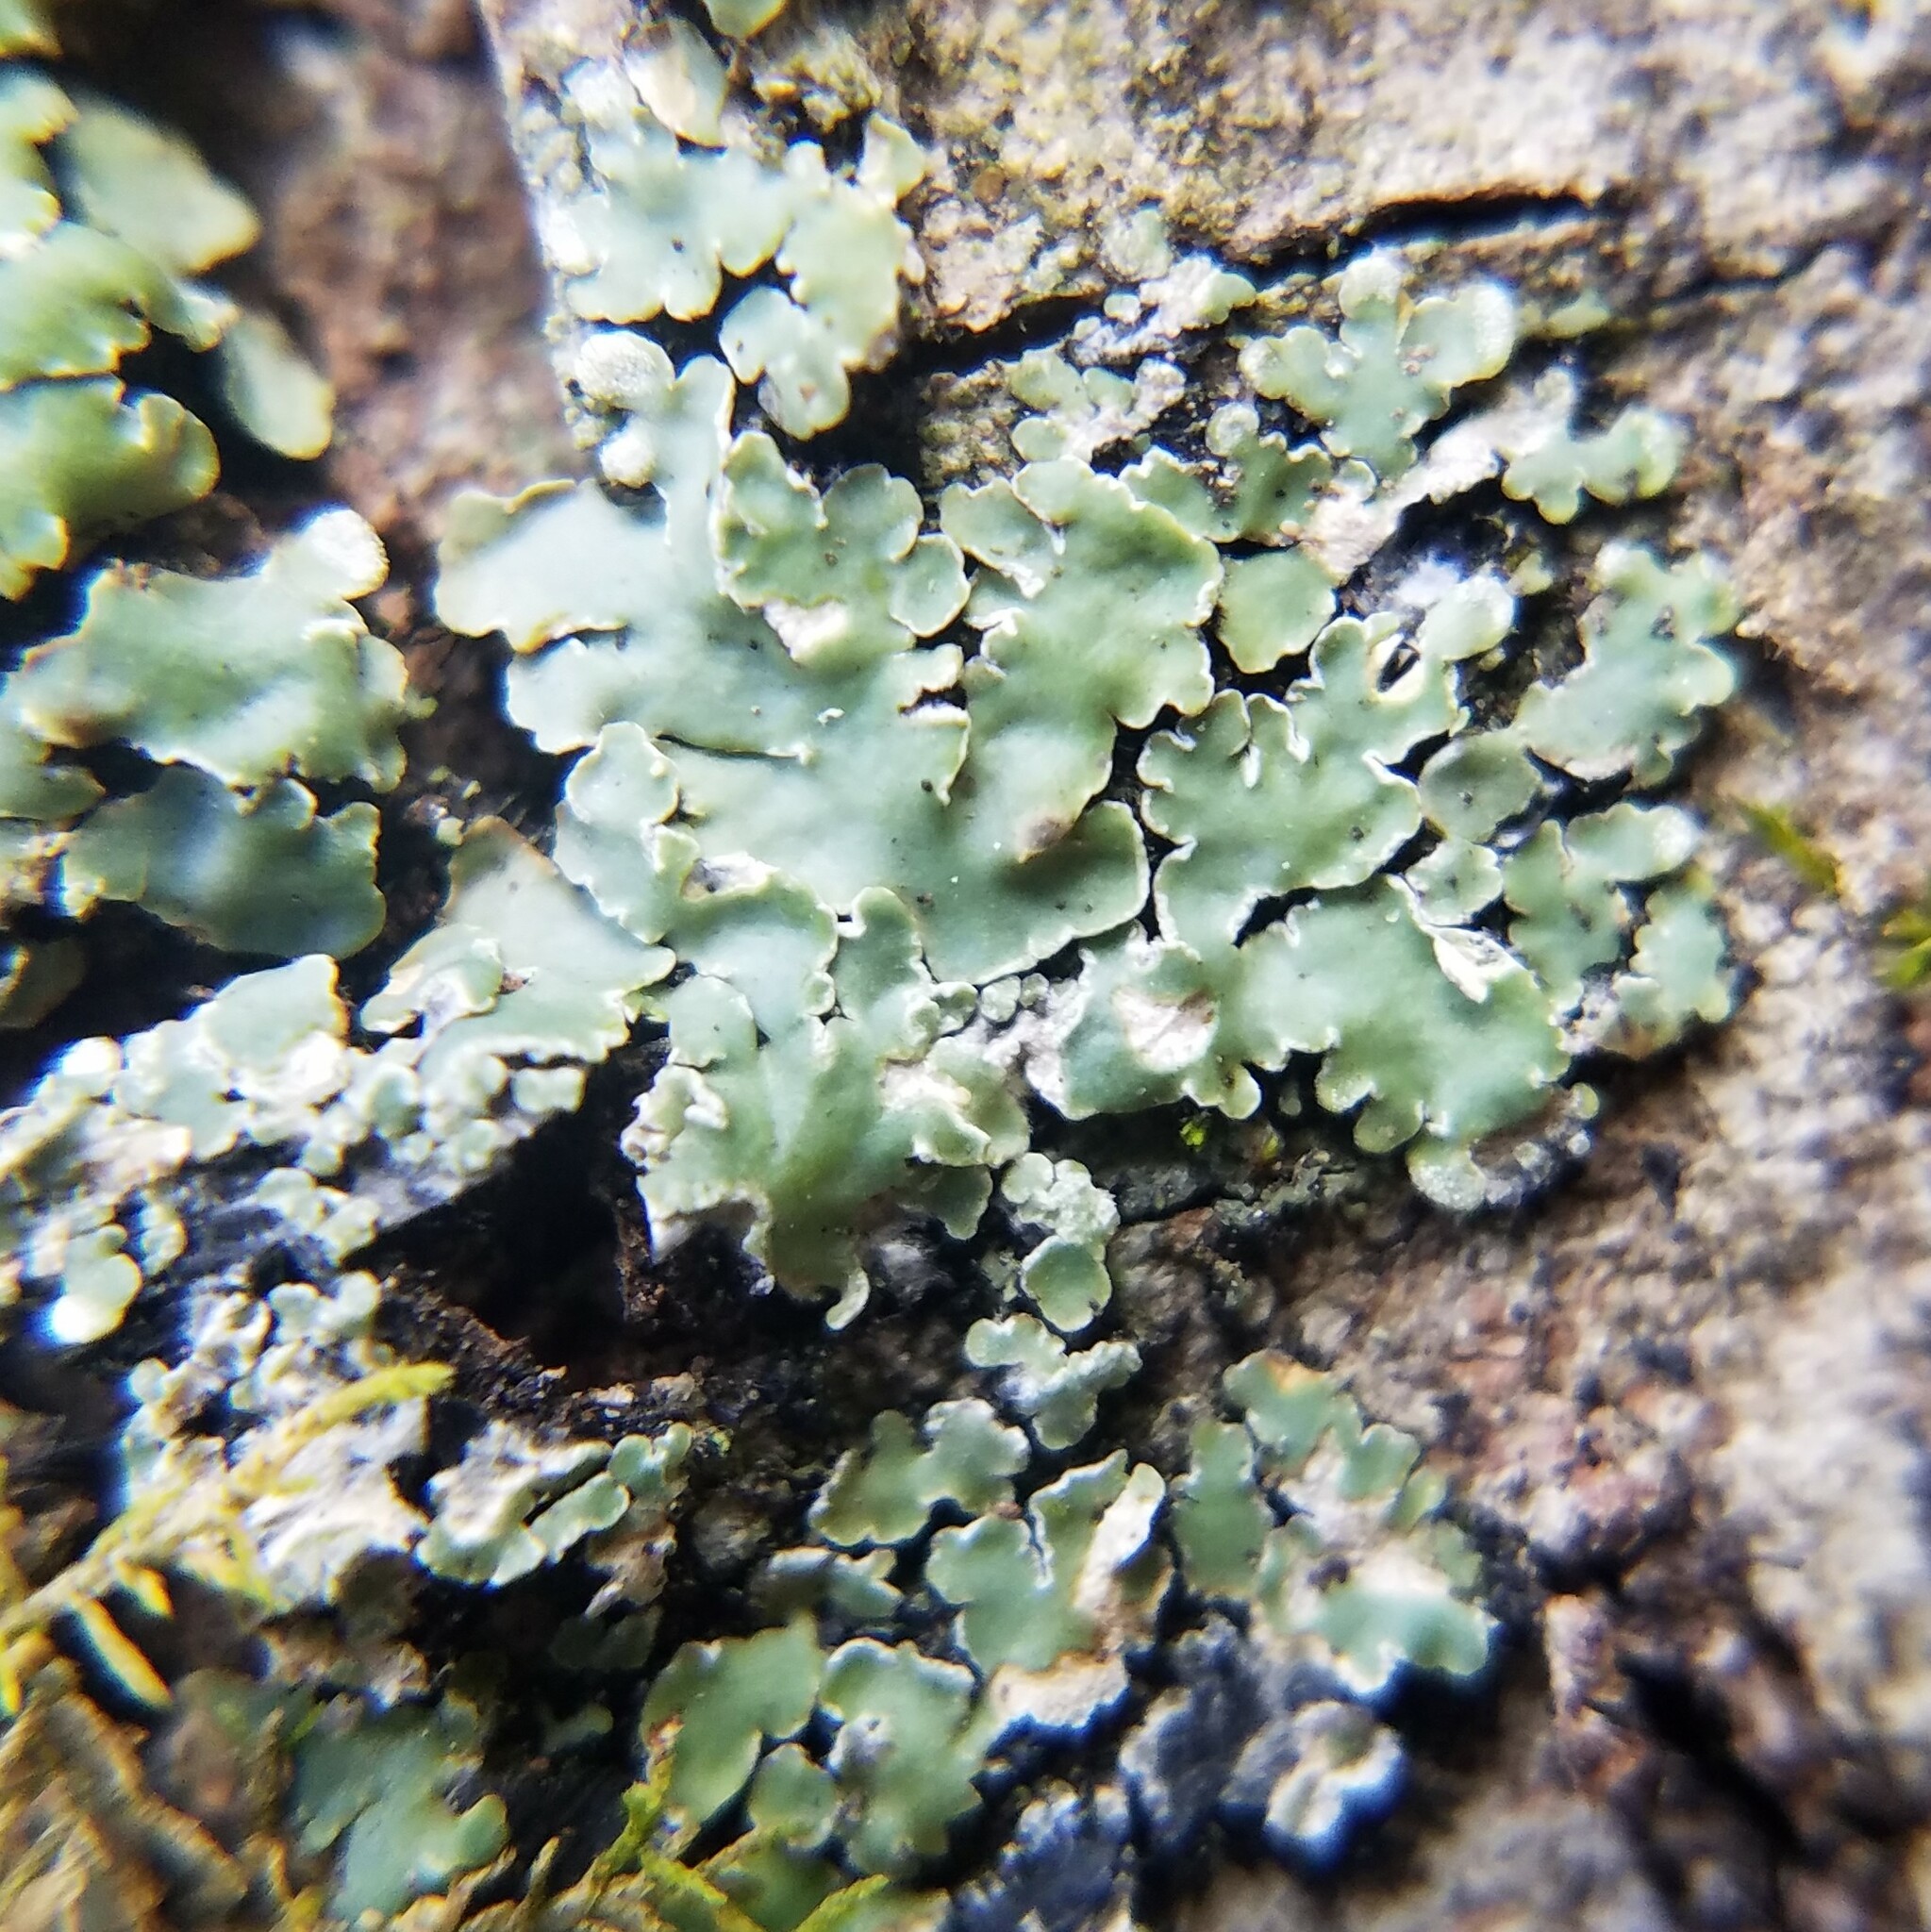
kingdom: Fungi
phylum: Ascomycota
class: Lecanoromycetes
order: Caliciales
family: Caliciaceae
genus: Pyxine
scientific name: Pyxine sorediata
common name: Mustard lichen
